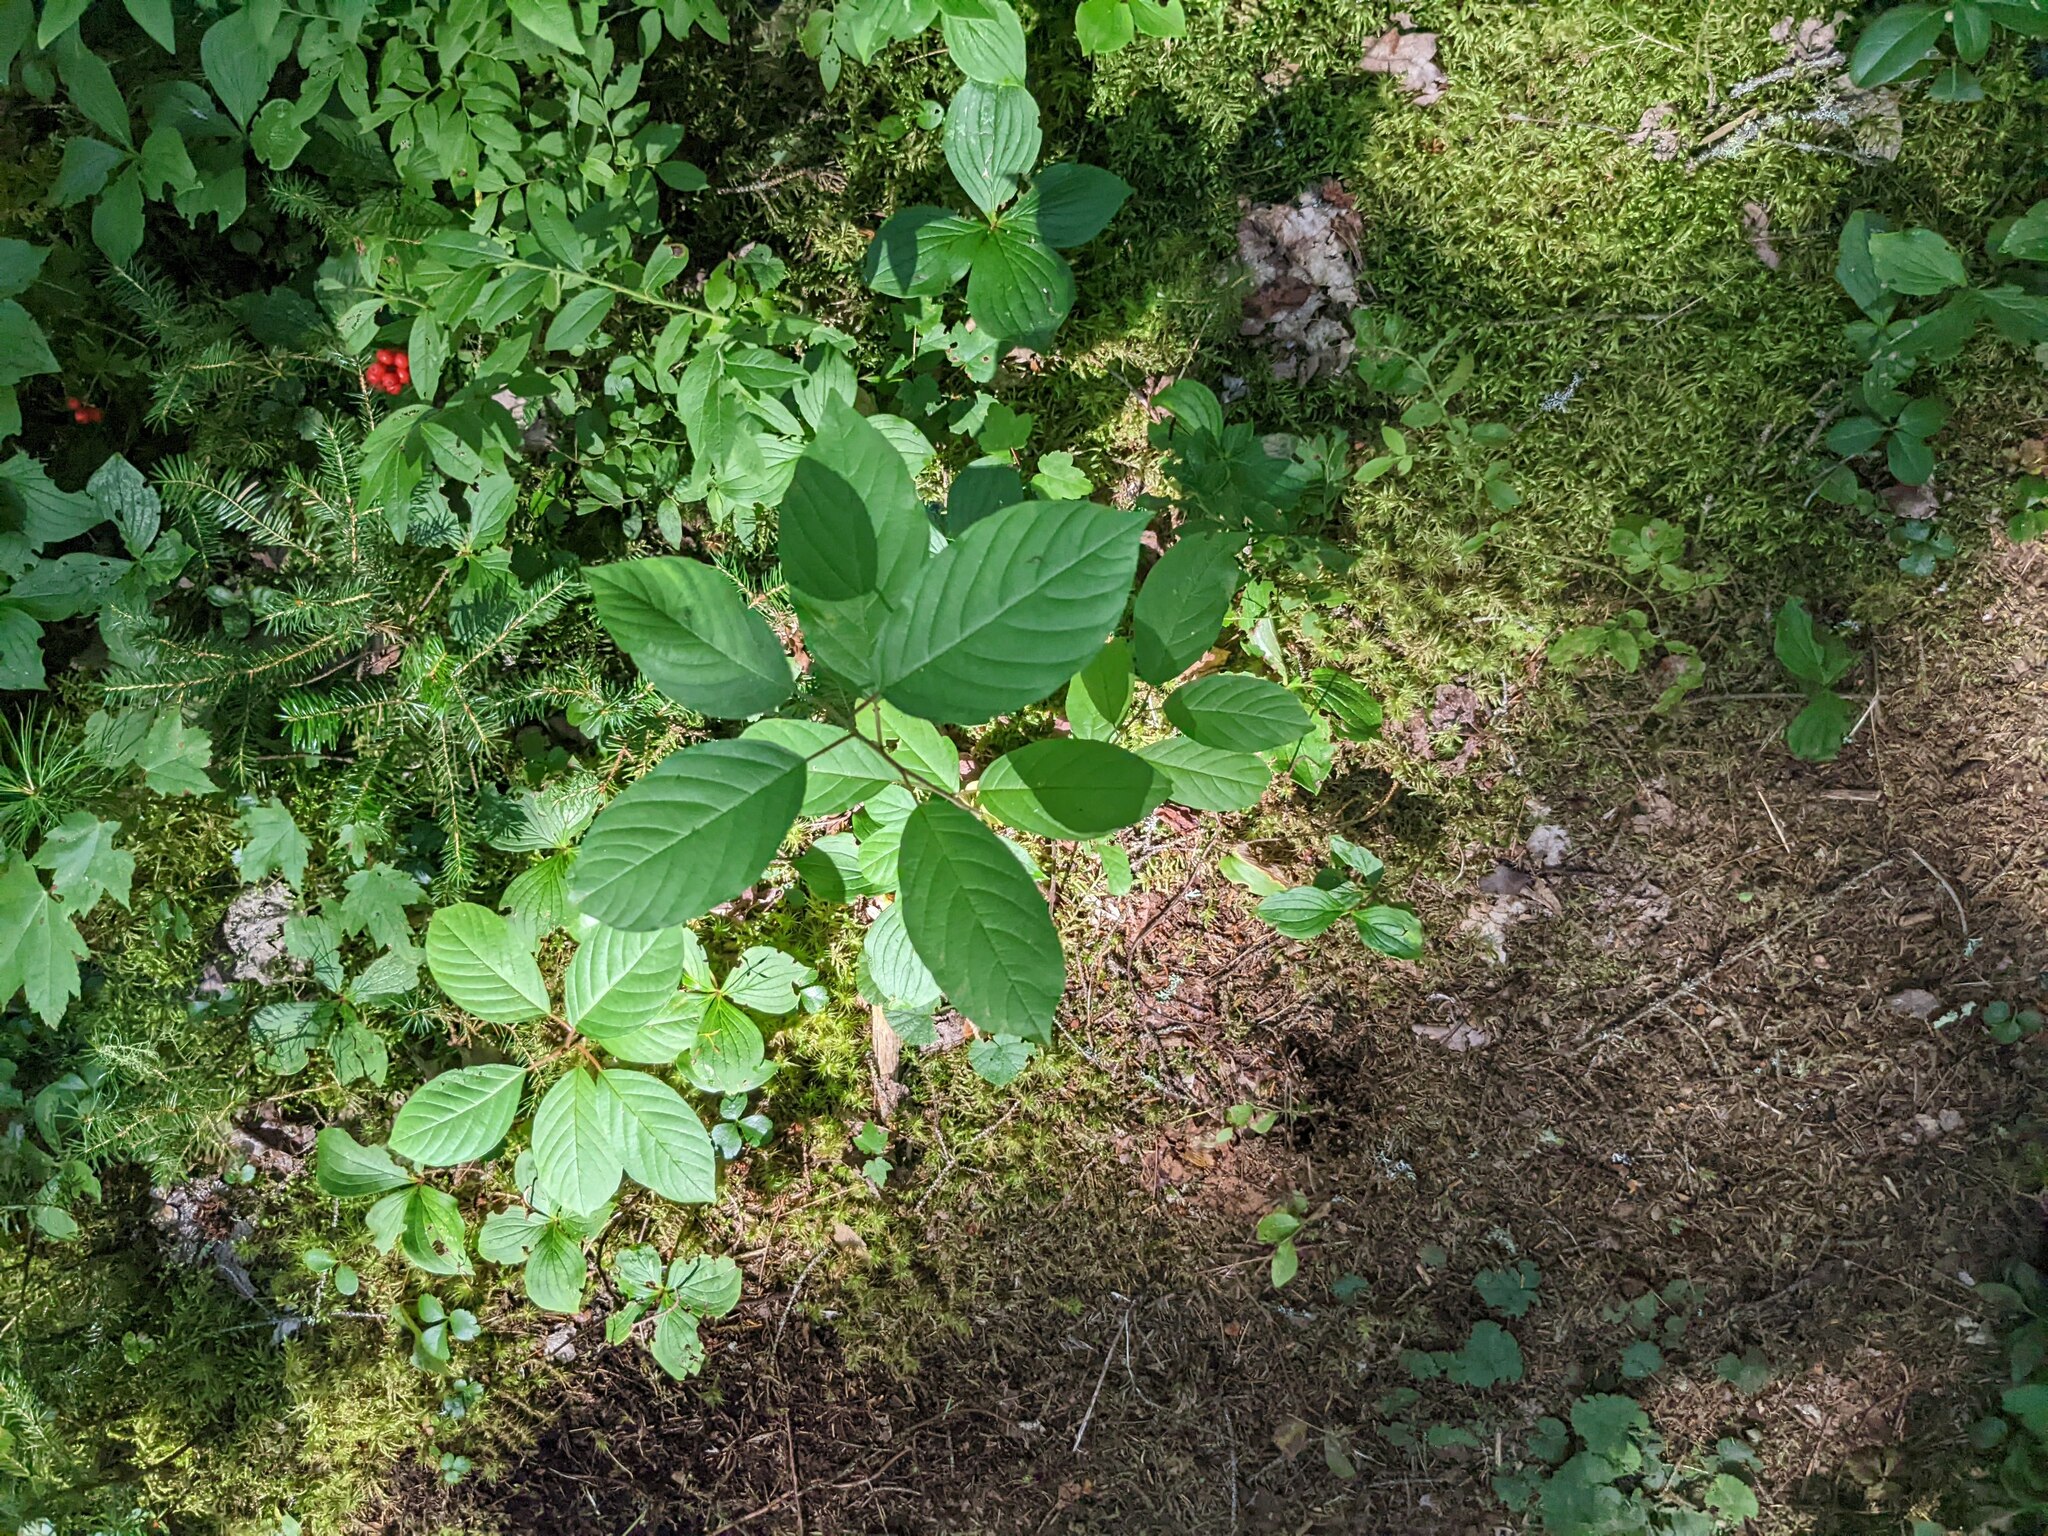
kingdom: Plantae
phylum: Tracheophyta
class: Magnoliopsida
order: Rosales
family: Rhamnaceae
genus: Frangula
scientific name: Frangula alnus
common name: Alder buckthorn
